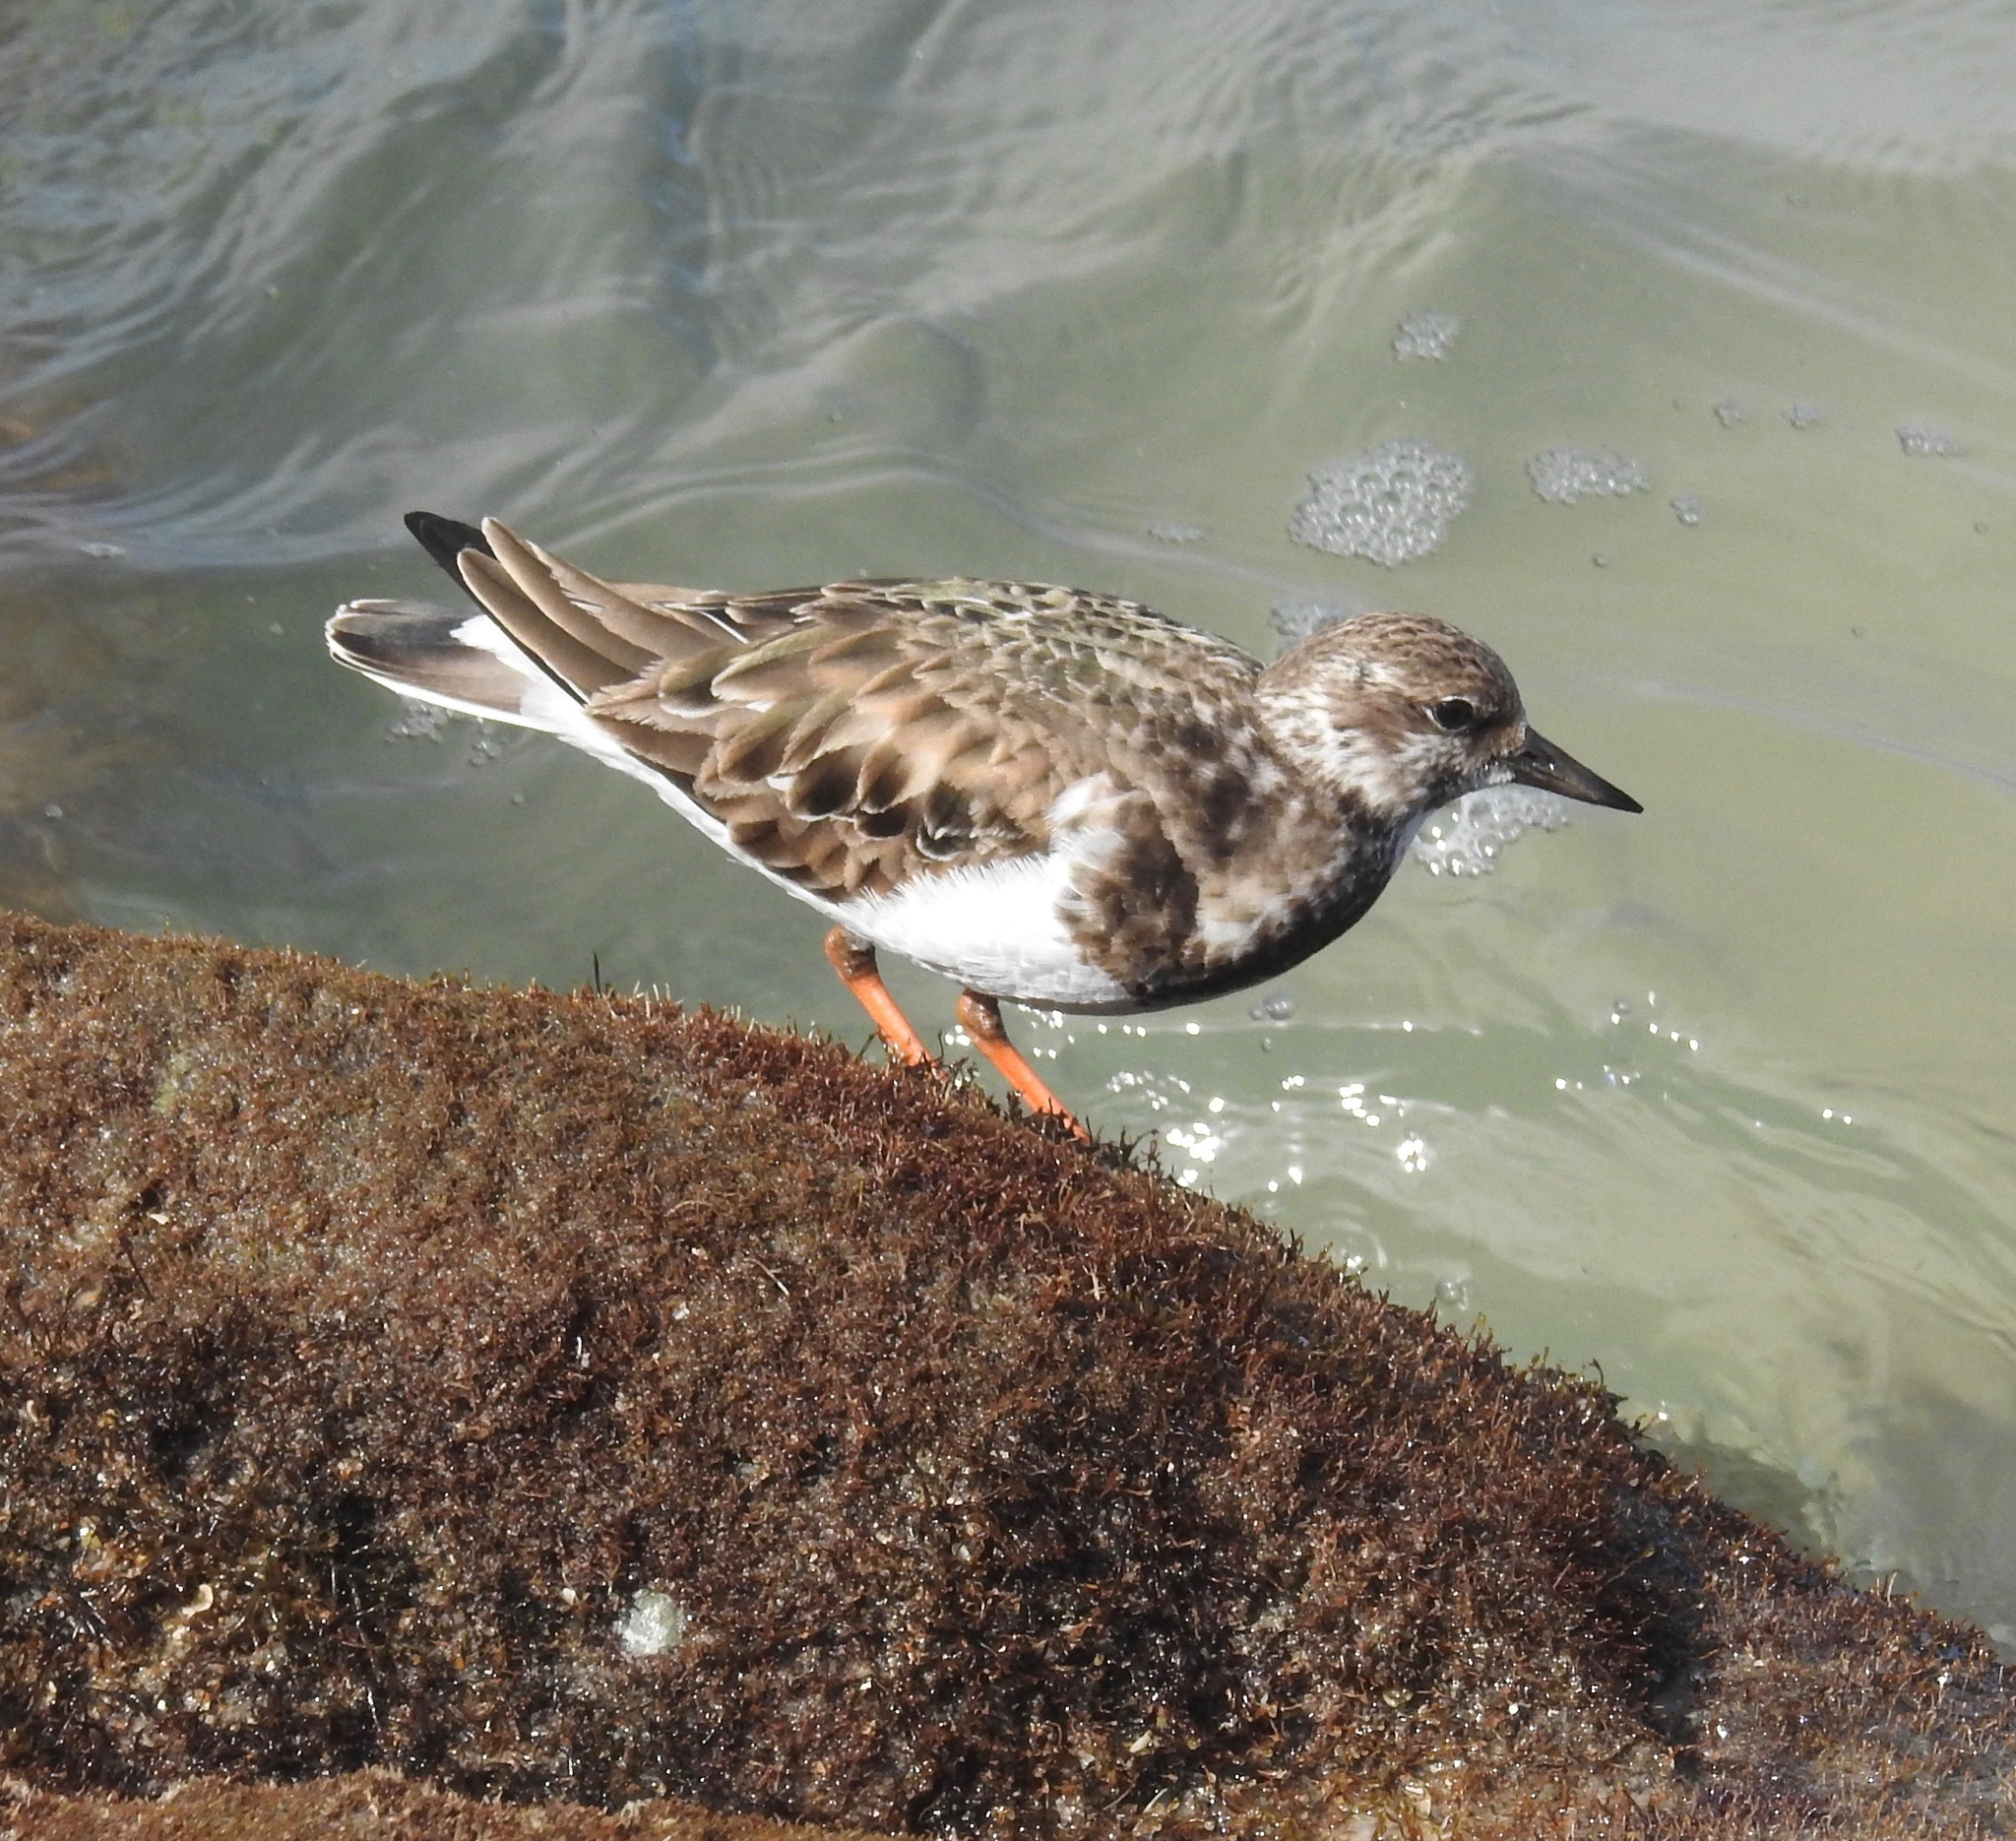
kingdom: Animalia
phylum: Chordata
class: Aves
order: Charadriiformes
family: Scolopacidae
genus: Arenaria
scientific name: Arenaria interpres
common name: Ruddy turnstone
